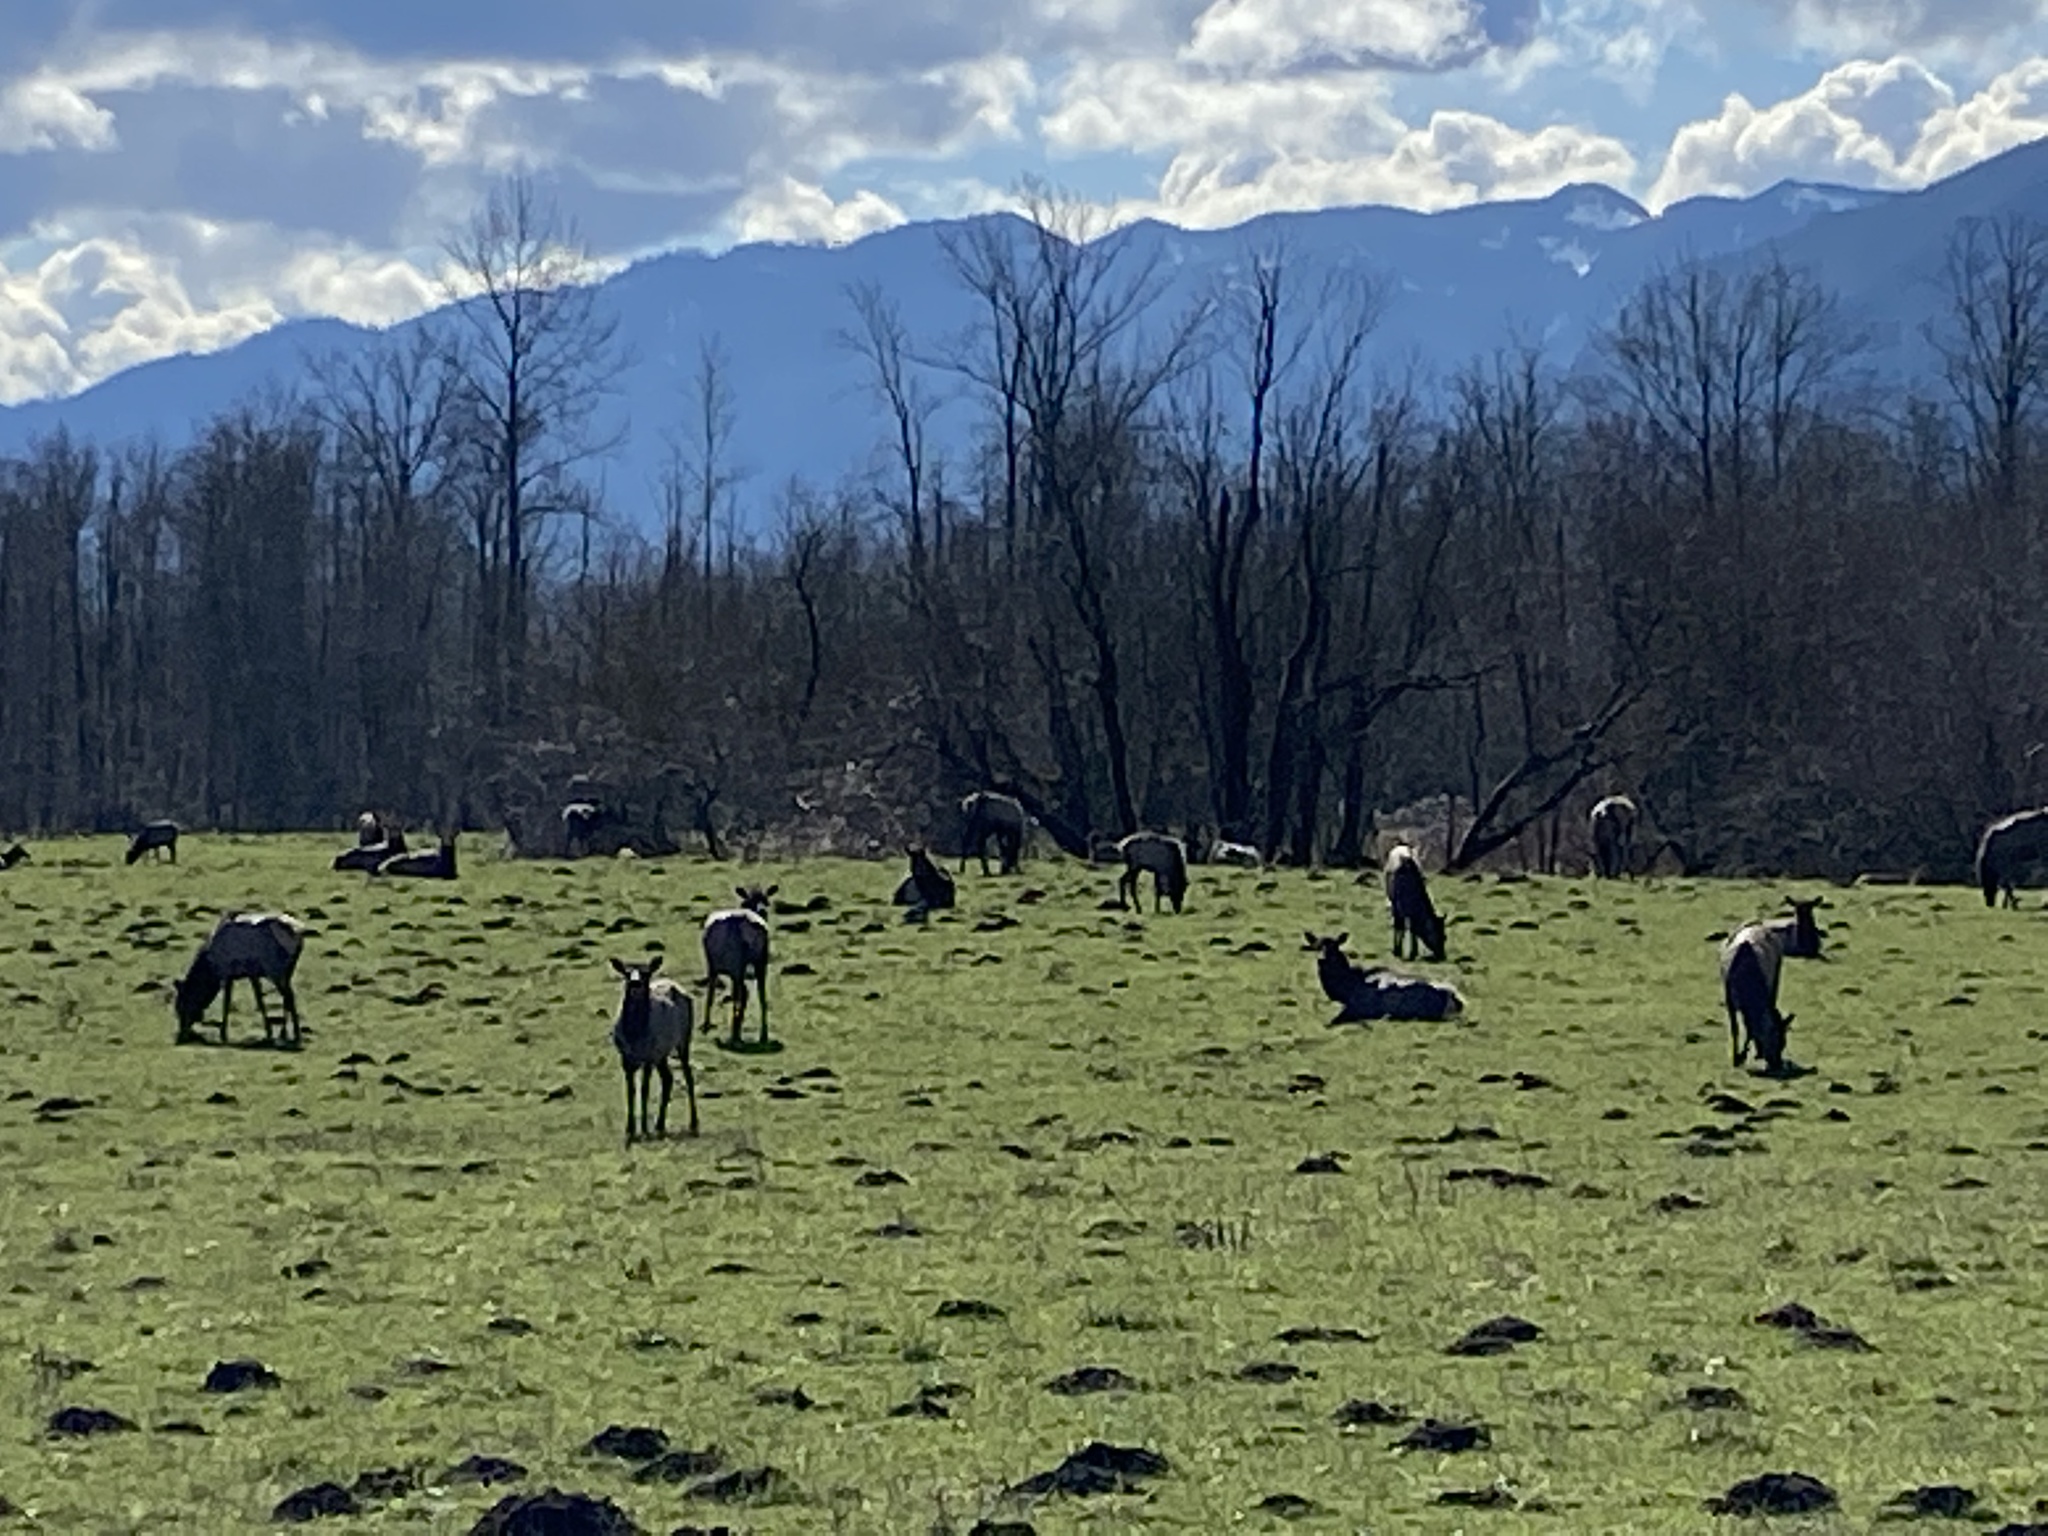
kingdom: Animalia
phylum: Chordata
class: Mammalia
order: Artiodactyla
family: Cervidae
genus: Cervus
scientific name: Cervus elaphus
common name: Red deer
